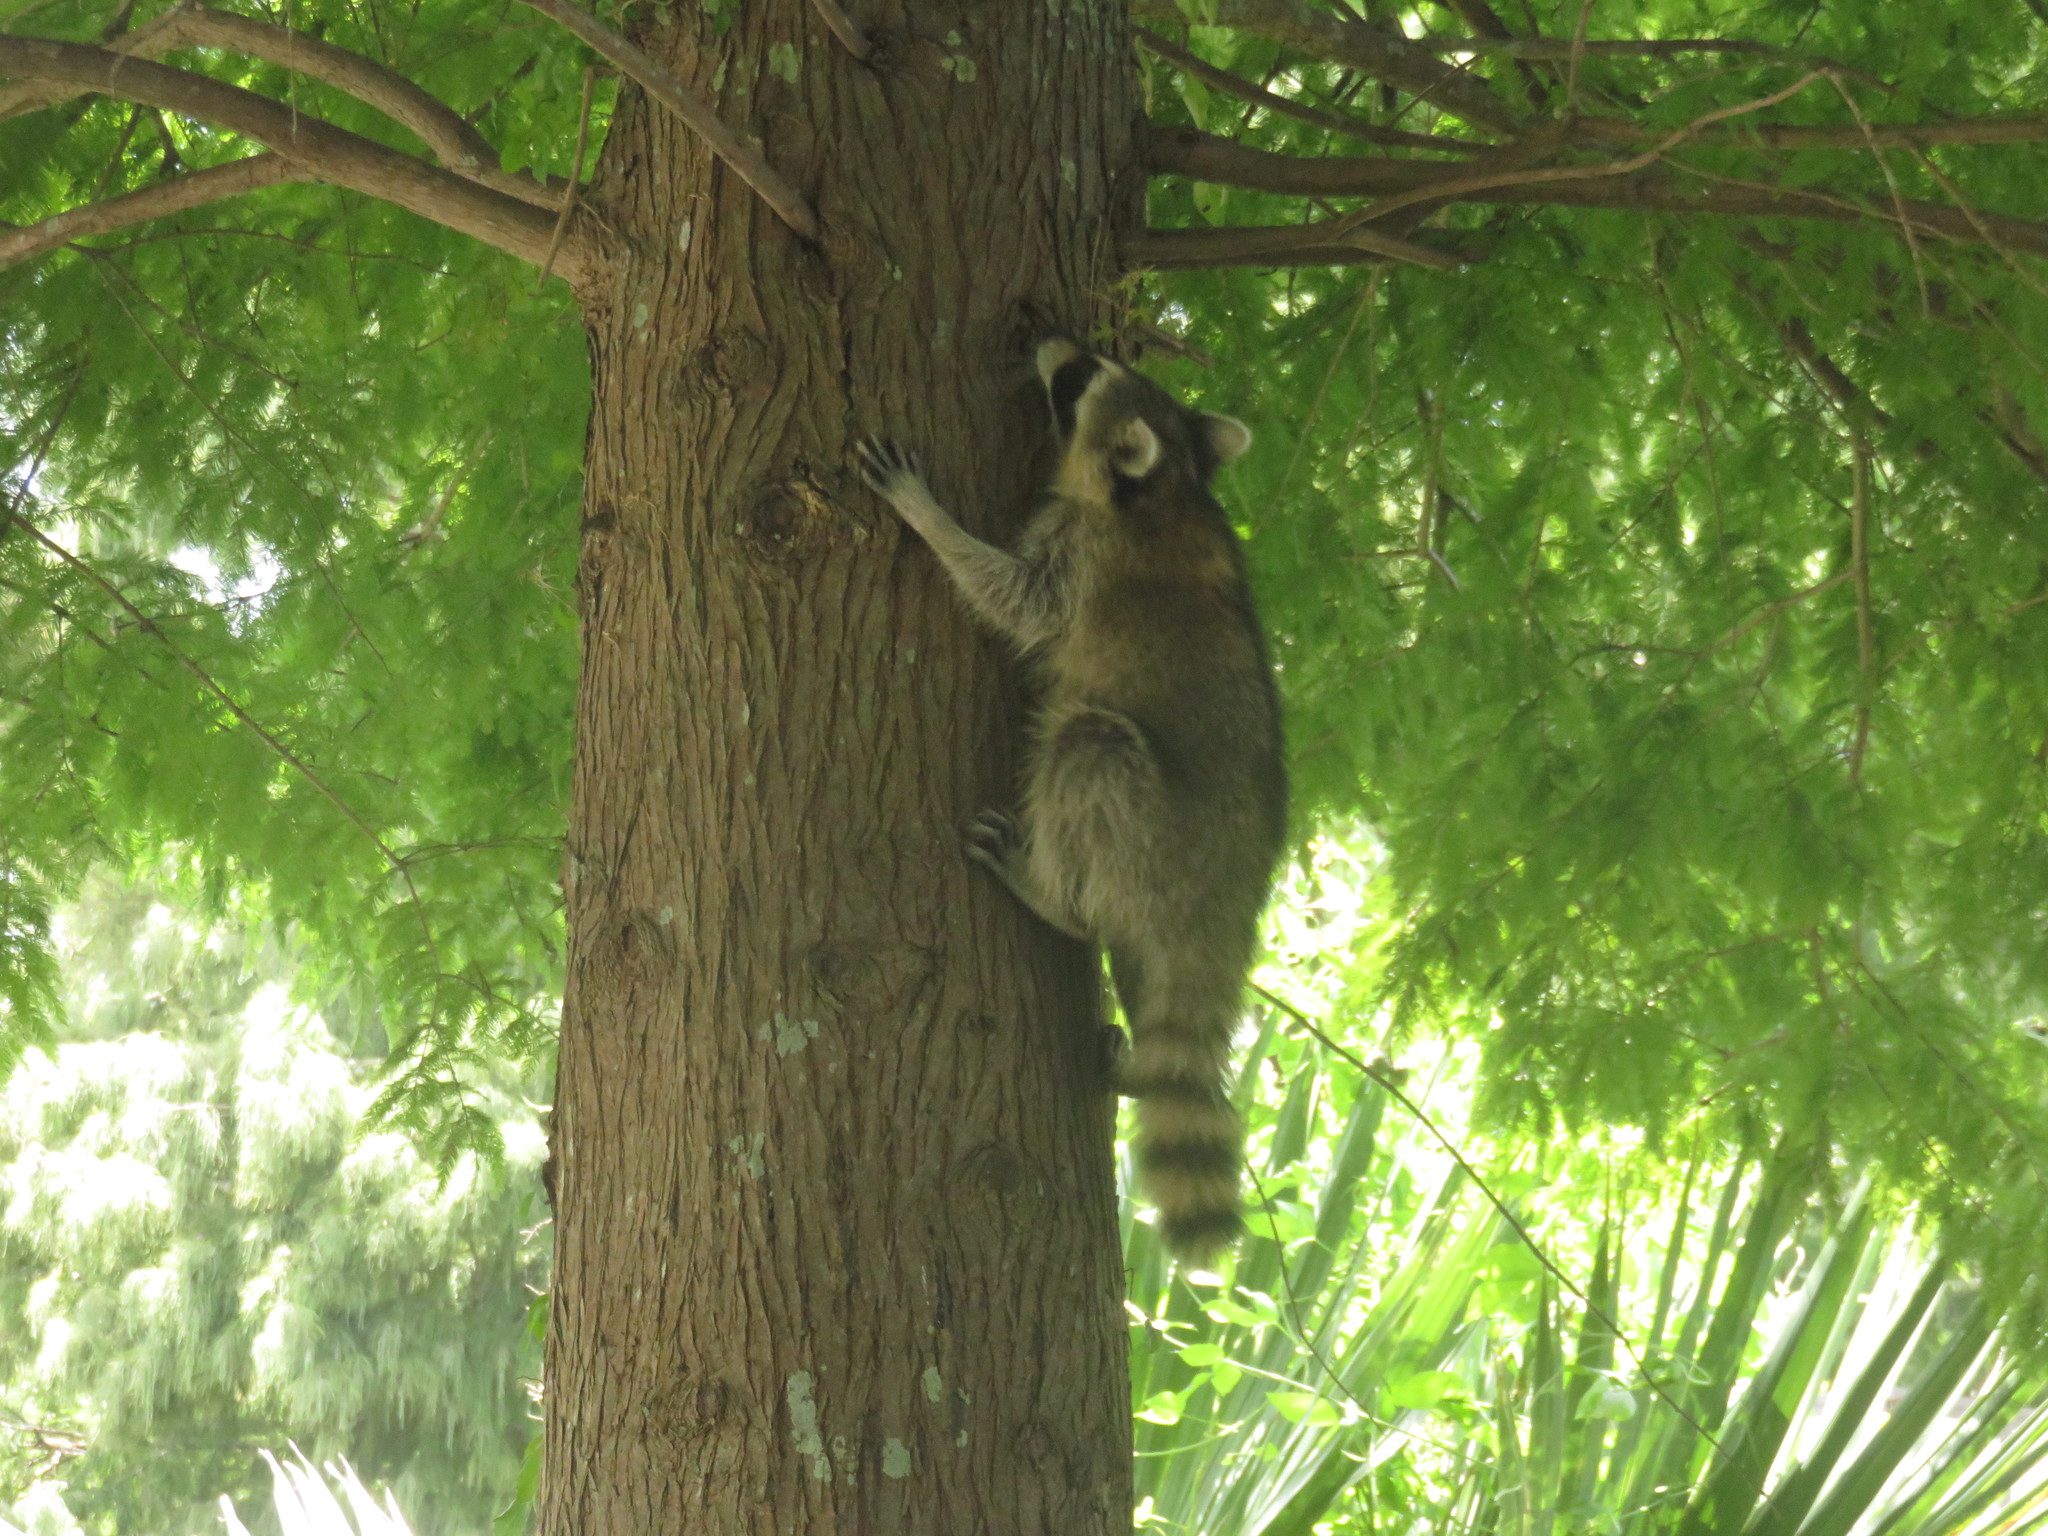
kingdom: Animalia
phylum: Chordata
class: Mammalia
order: Carnivora
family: Procyonidae
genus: Procyon
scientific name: Procyon lotor
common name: Raccoon
